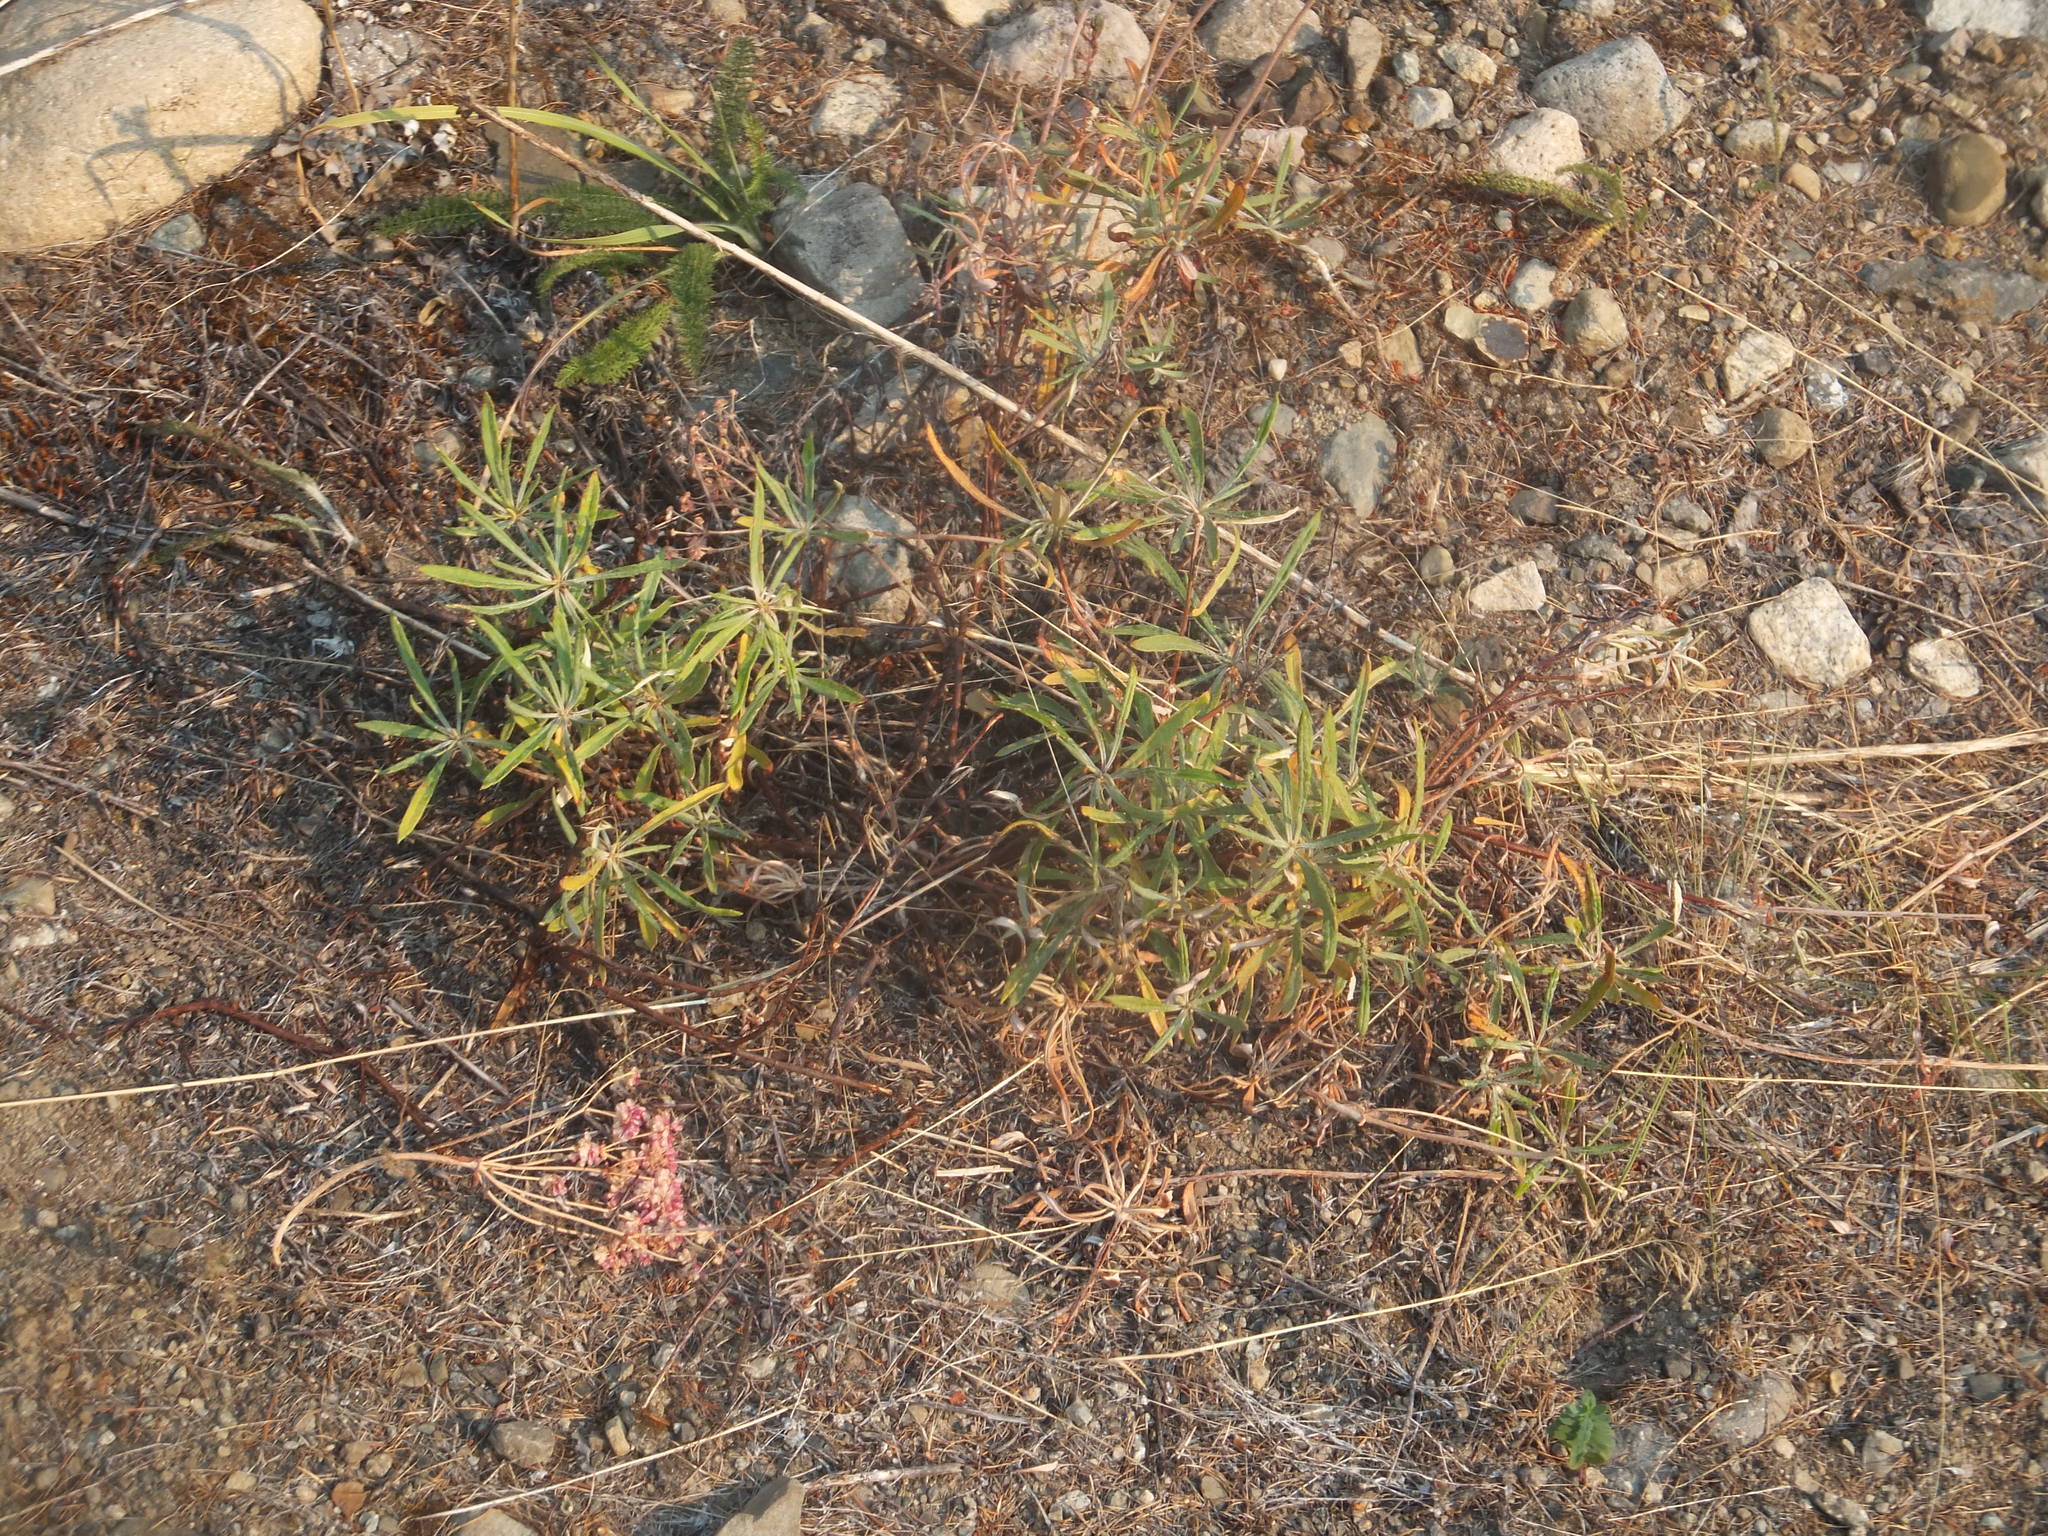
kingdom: Plantae
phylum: Tracheophyta
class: Magnoliopsida
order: Caryophyllales
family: Polygonaceae
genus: Eriogonum
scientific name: Eriogonum heracleoides
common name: Wyeth's buckwheat
